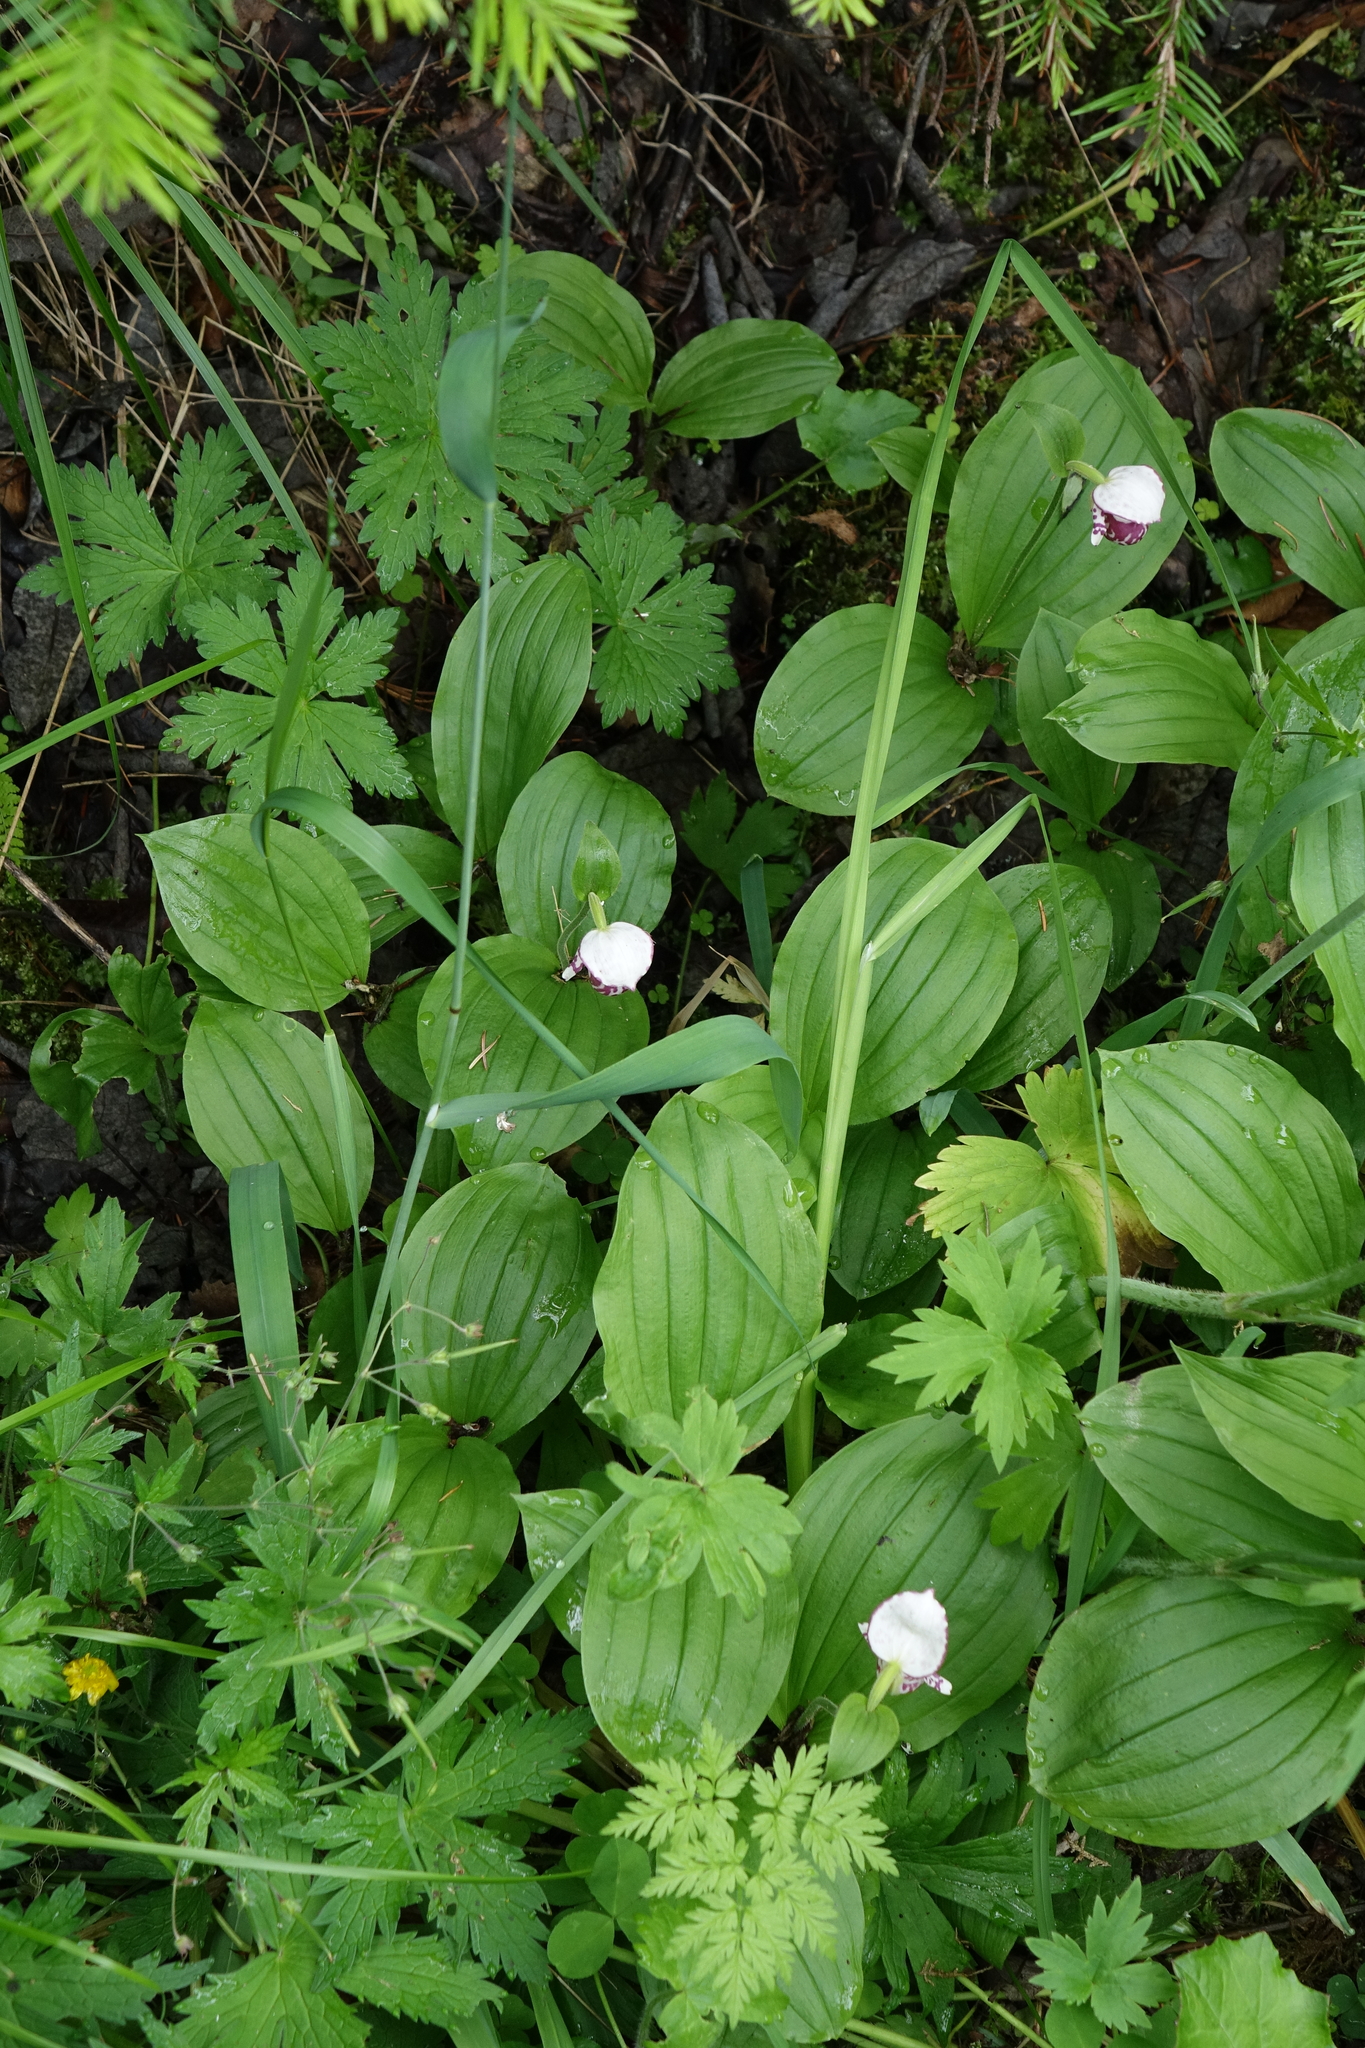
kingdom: Plantae
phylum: Tracheophyta
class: Liliopsida
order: Asparagales
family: Orchidaceae
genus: Cypripedium
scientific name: Cypripedium guttatum
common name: Pink lady slipper
